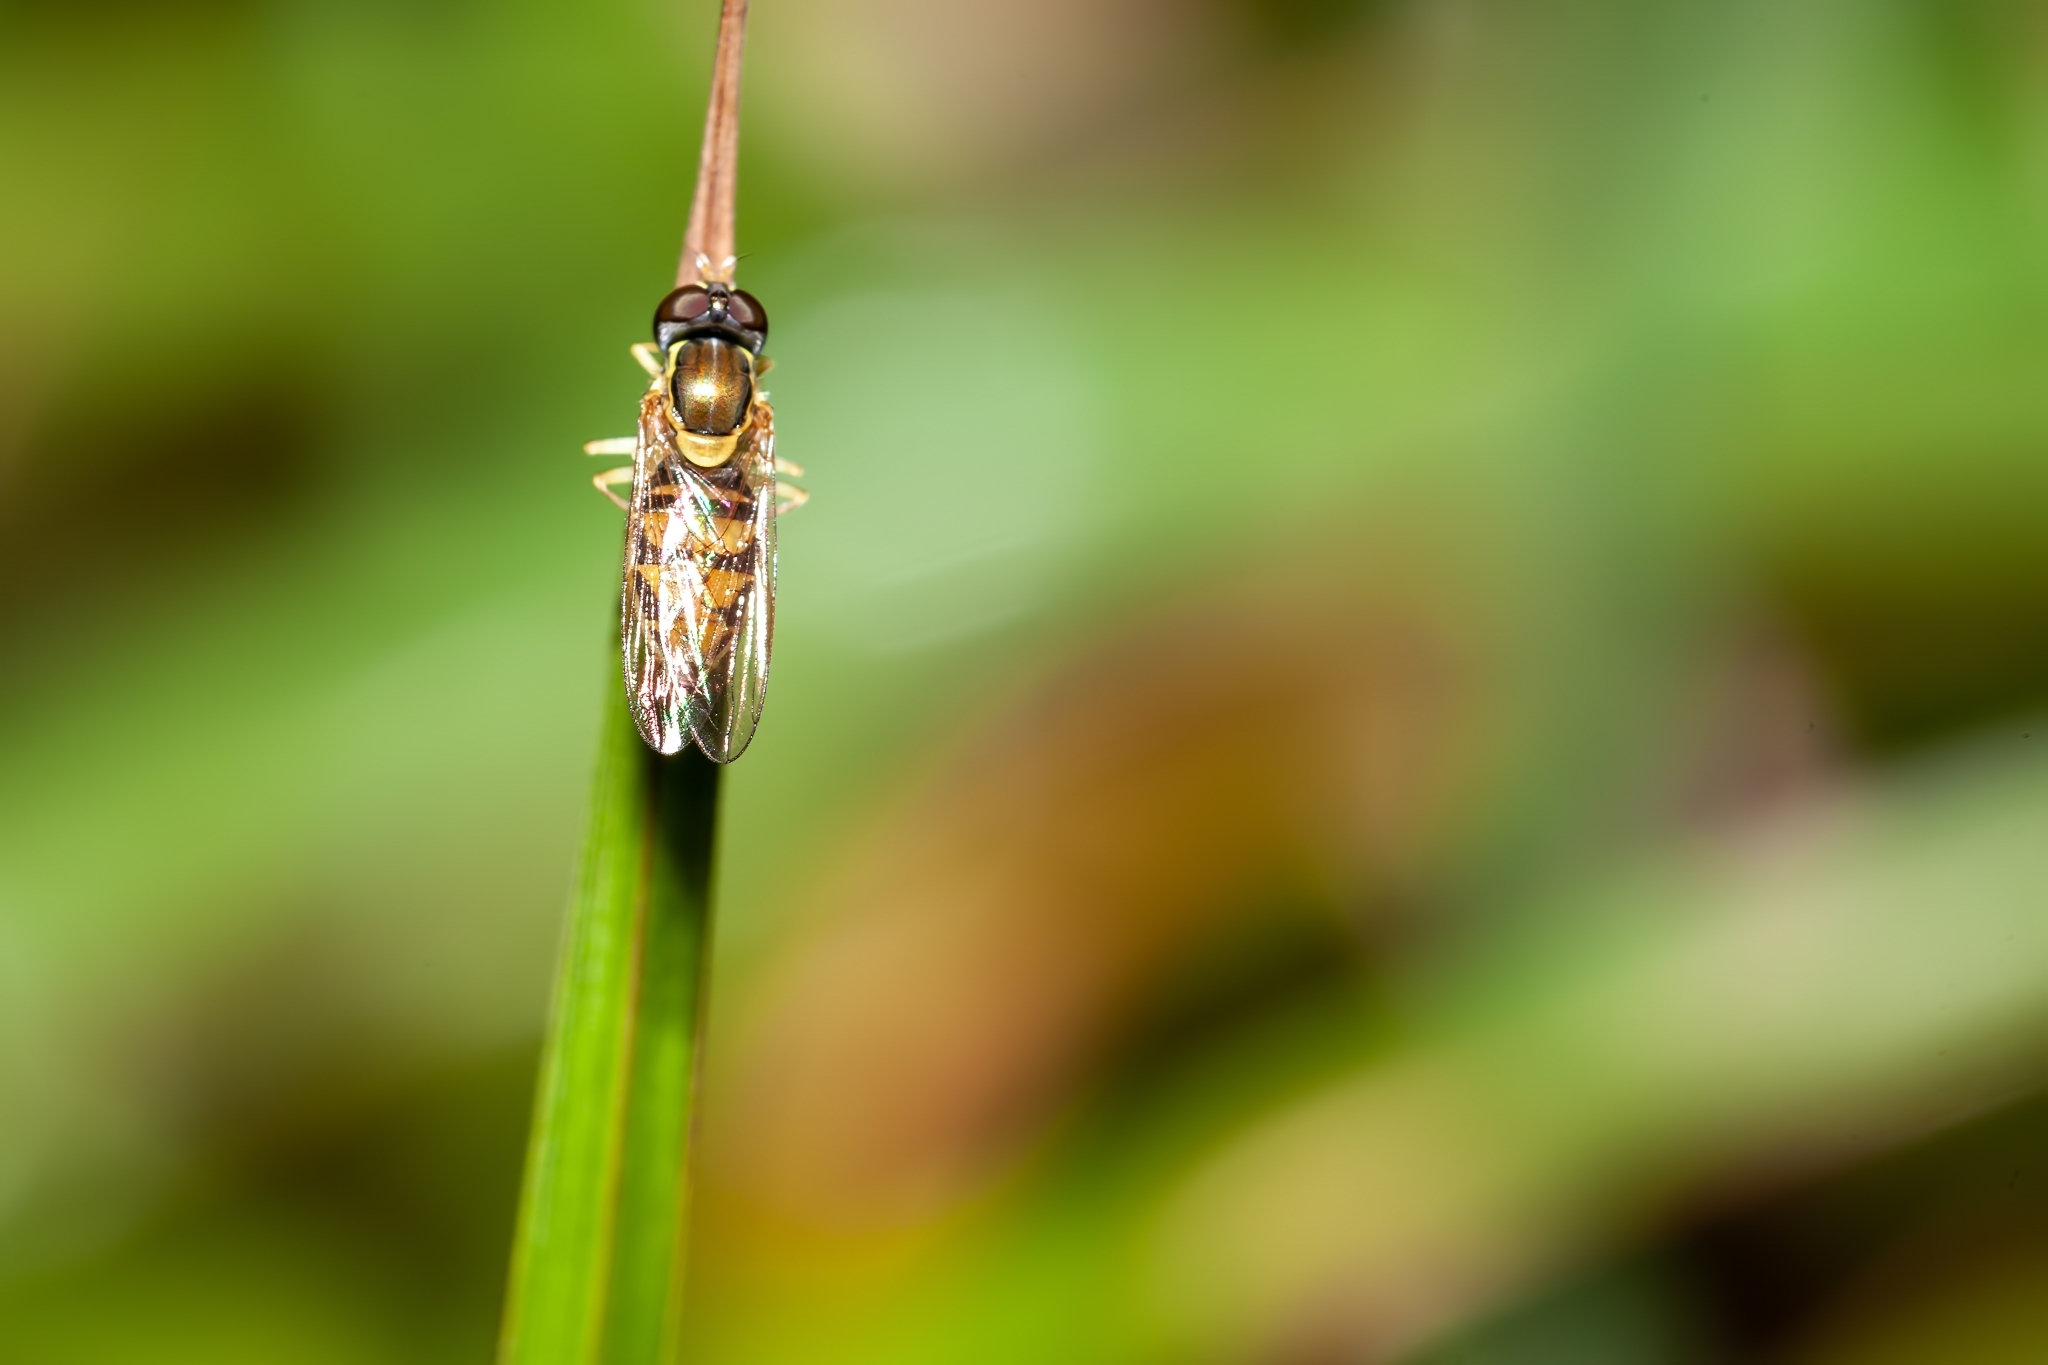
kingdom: Animalia
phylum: Arthropoda
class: Insecta
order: Diptera
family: Syrphidae
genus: Toxomerus
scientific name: Toxomerus marginatus
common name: Syrphid fly
